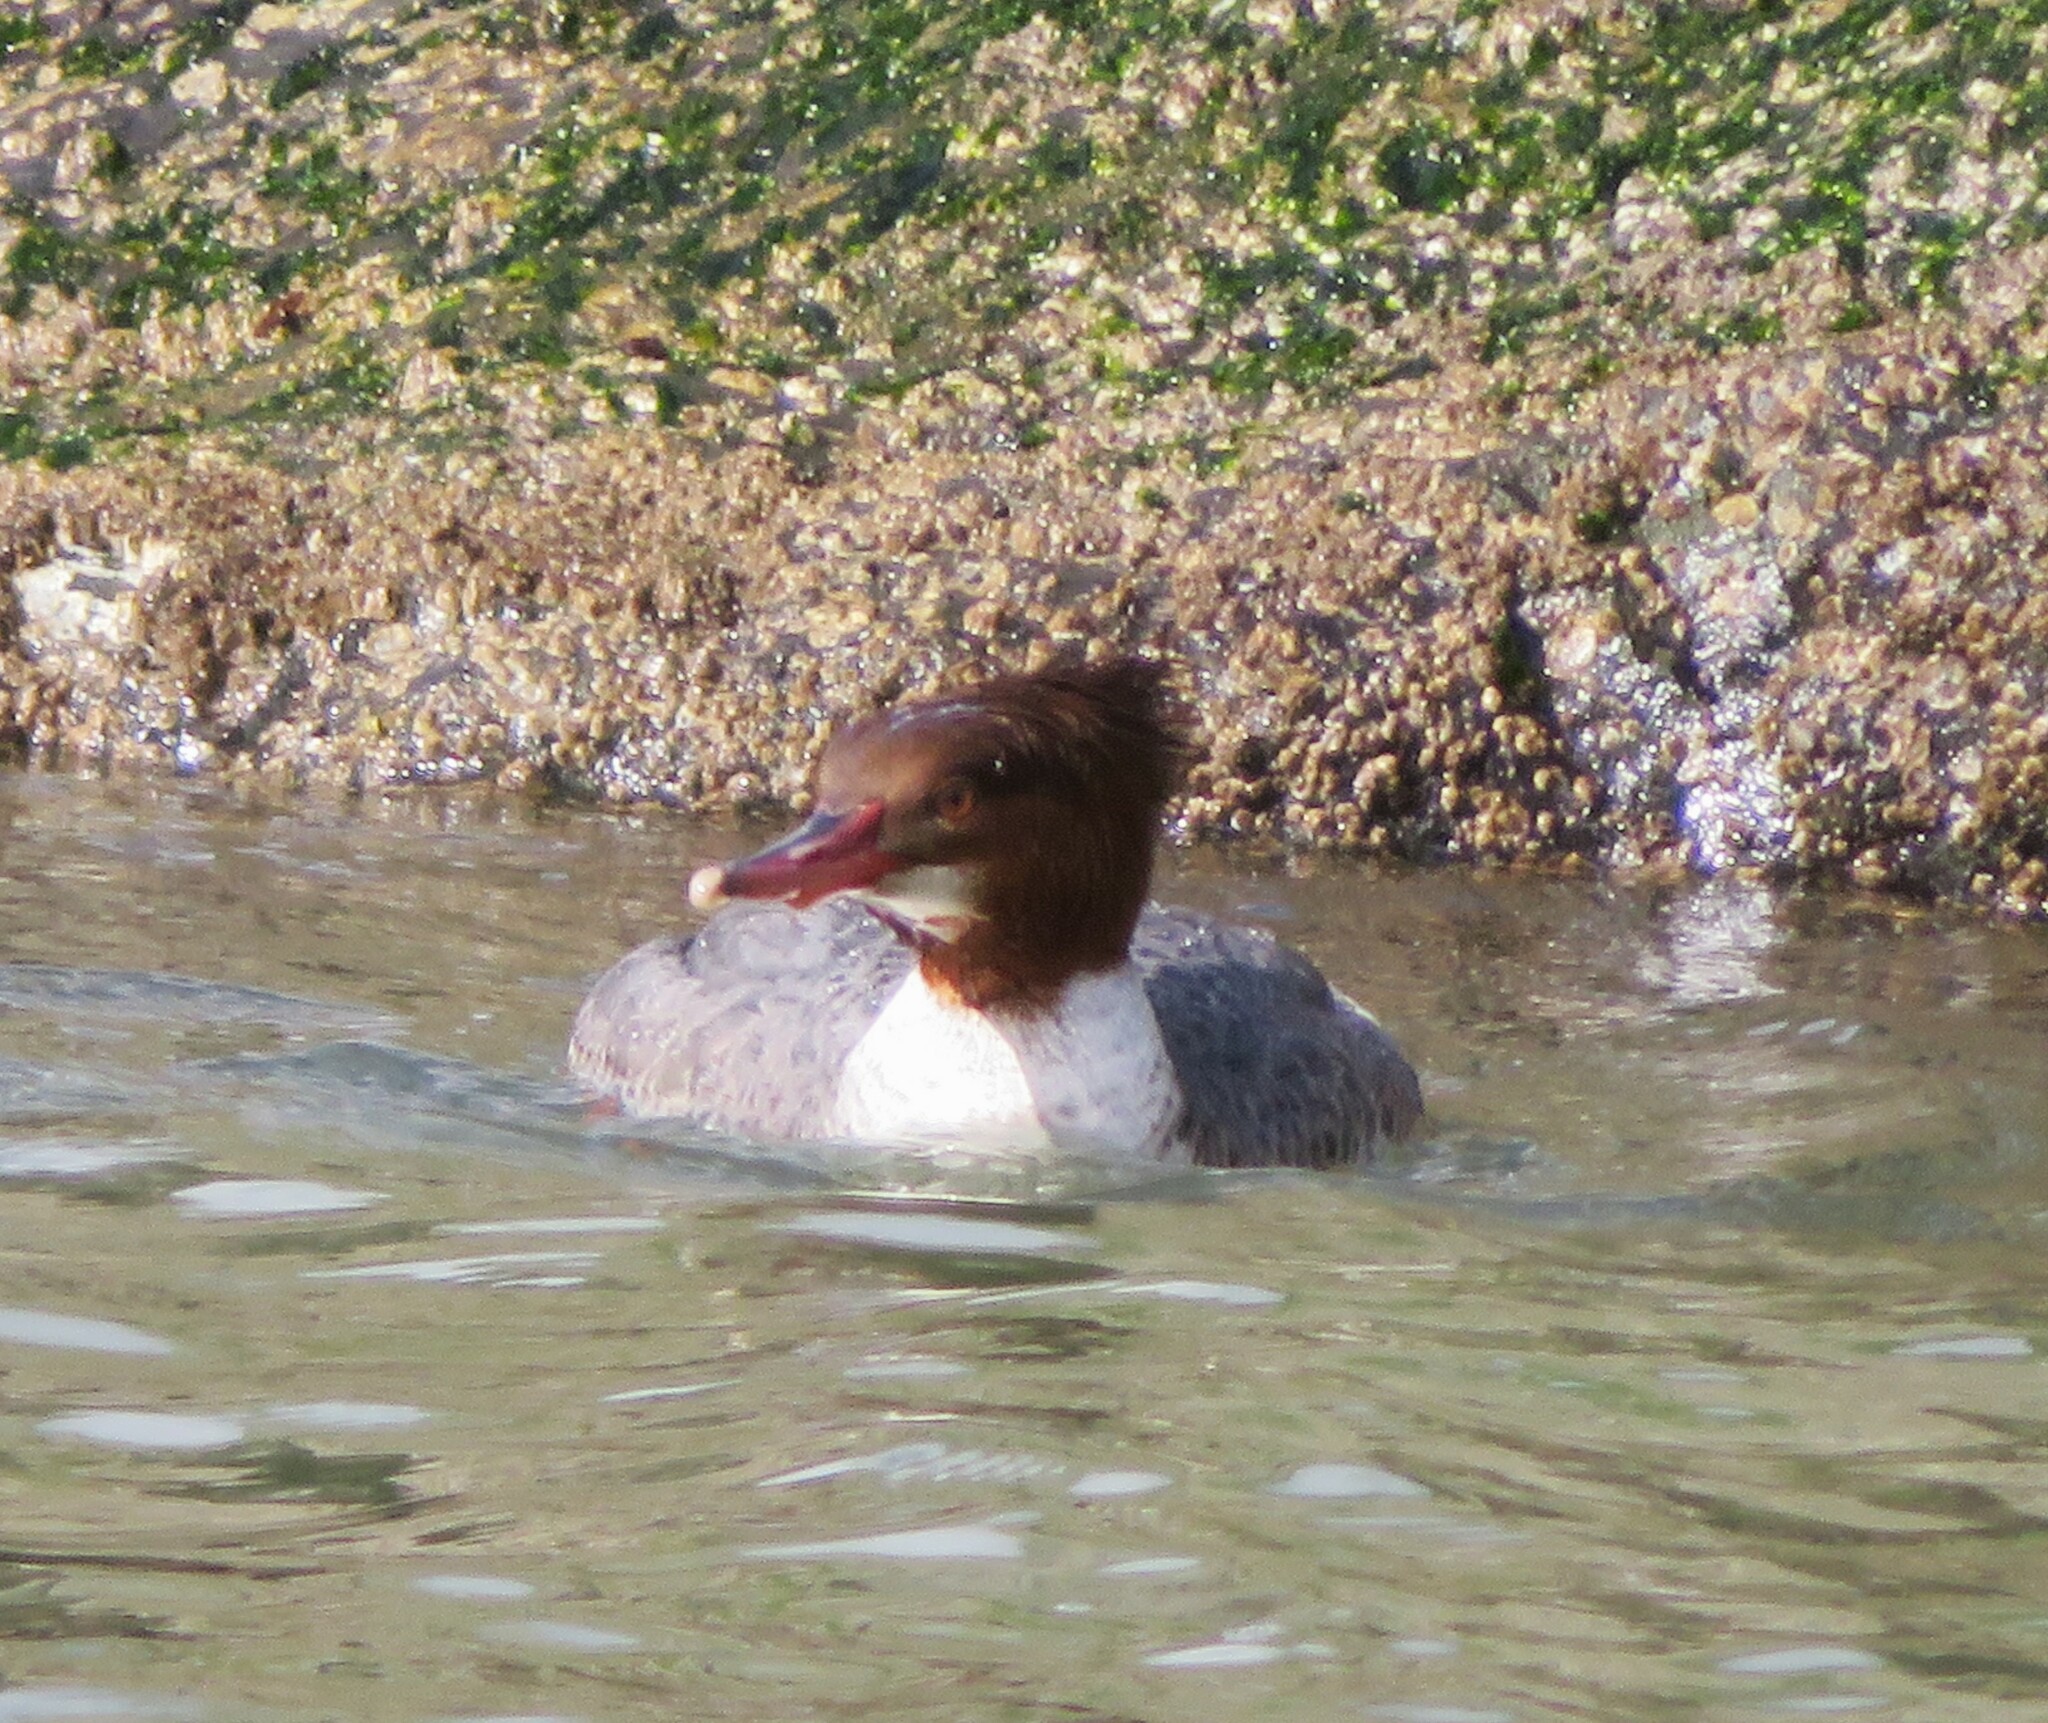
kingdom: Animalia
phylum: Chordata
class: Aves
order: Anseriformes
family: Anatidae
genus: Mergus
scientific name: Mergus merganser
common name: Common merganser
